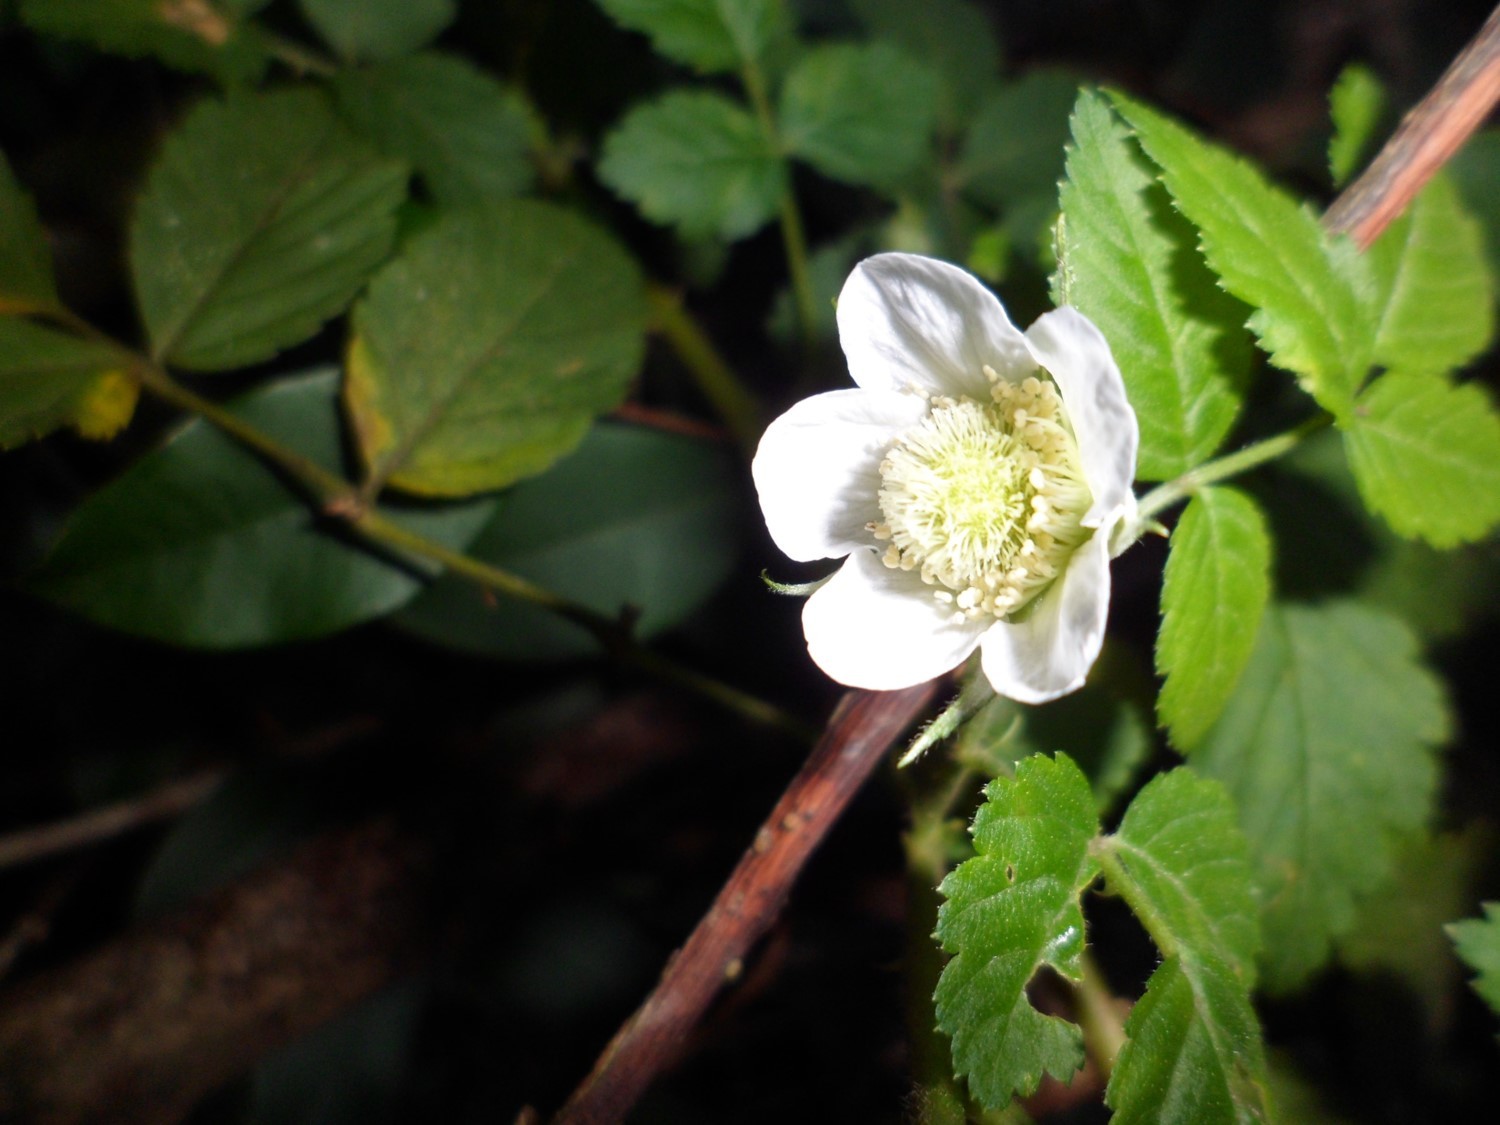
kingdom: Plantae
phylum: Tracheophyta
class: Magnoliopsida
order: Rosales
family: Rosaceae
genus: Rubus
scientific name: Rubus rosifolius
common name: Roseleaf raspberry
